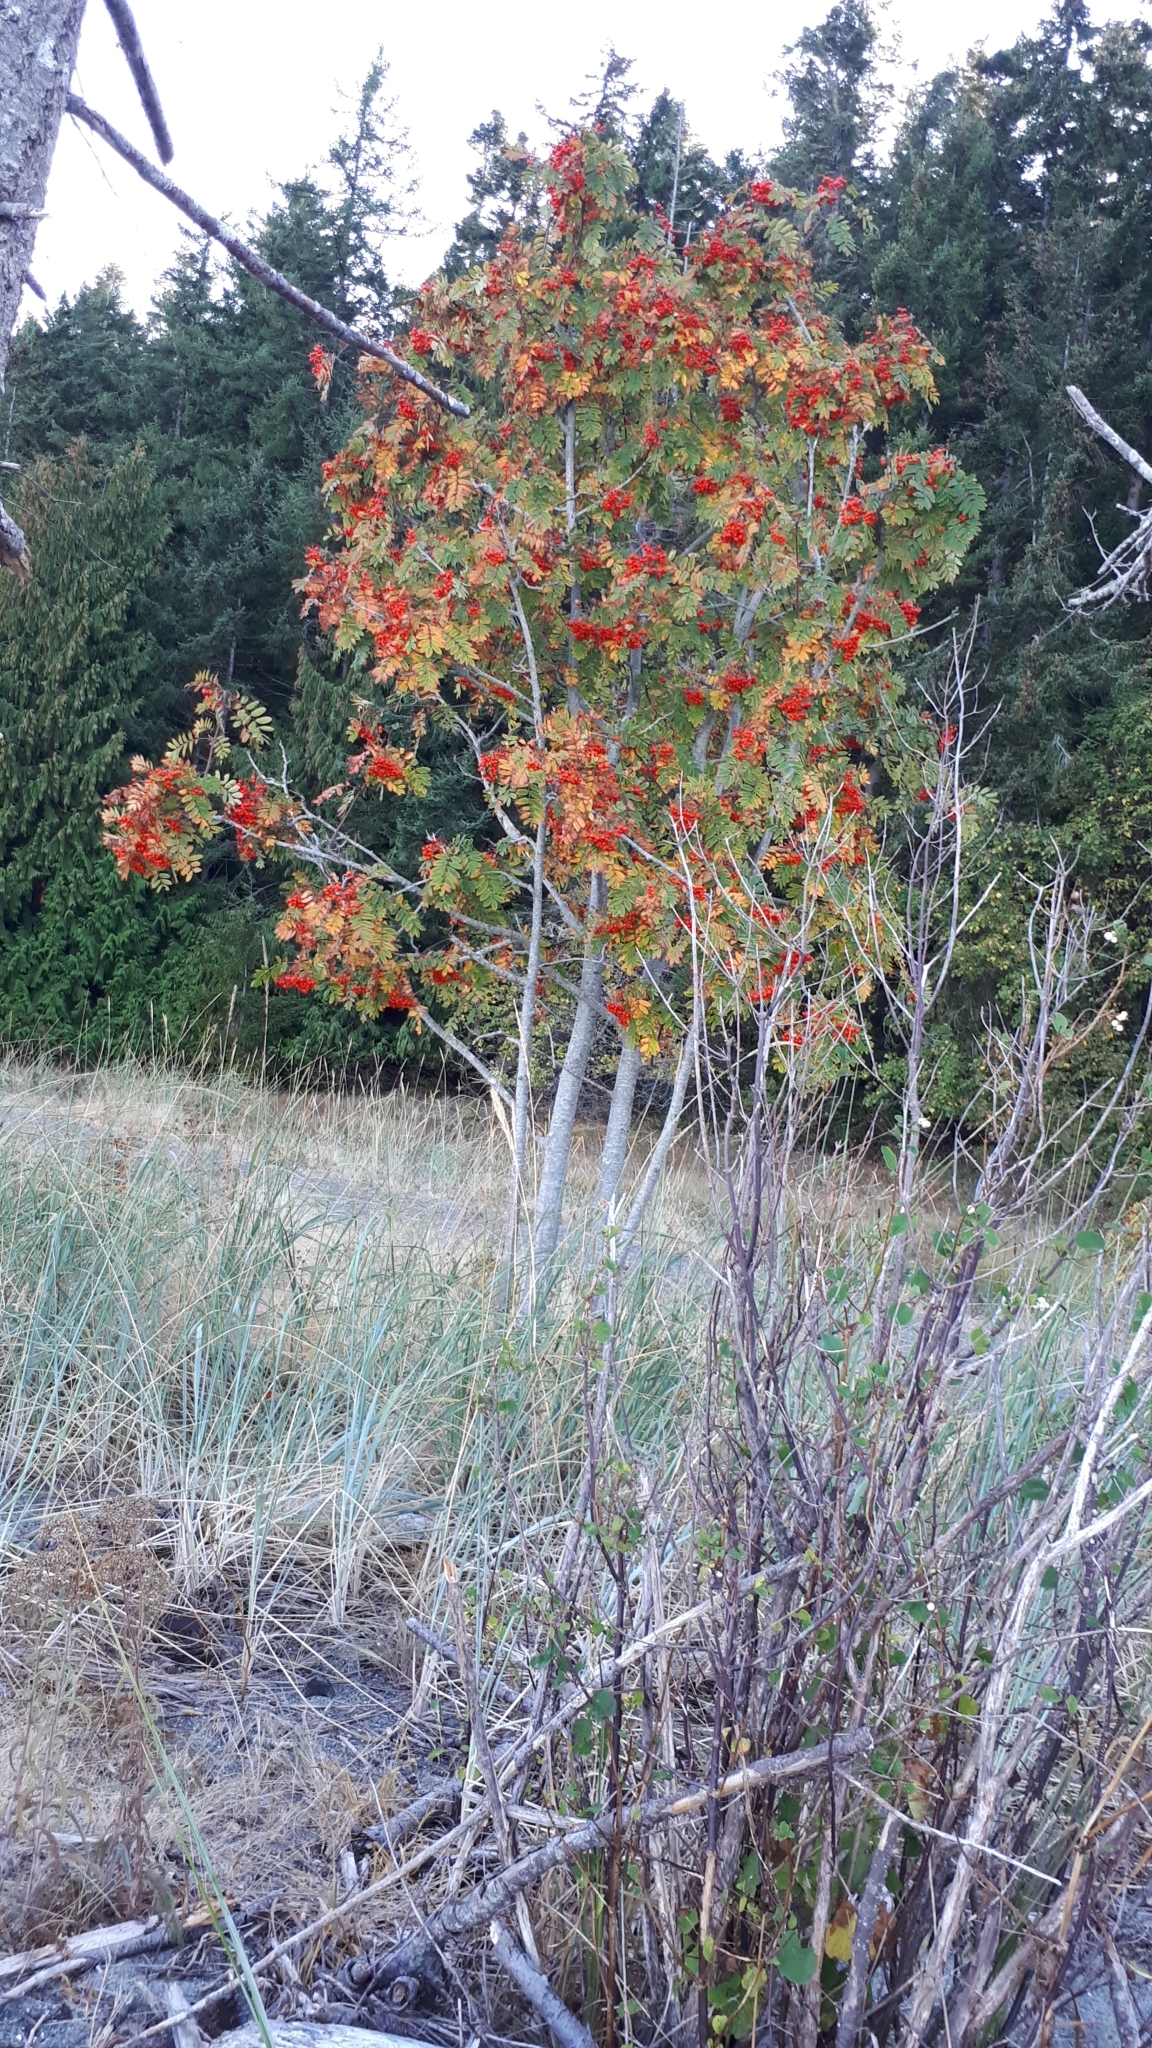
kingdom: Plantae
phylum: Tracheophyta
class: Magnoliopsida
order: Rosales
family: Rosaceae
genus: Sorbus
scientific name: Sorbus aucuparia
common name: Rowan
